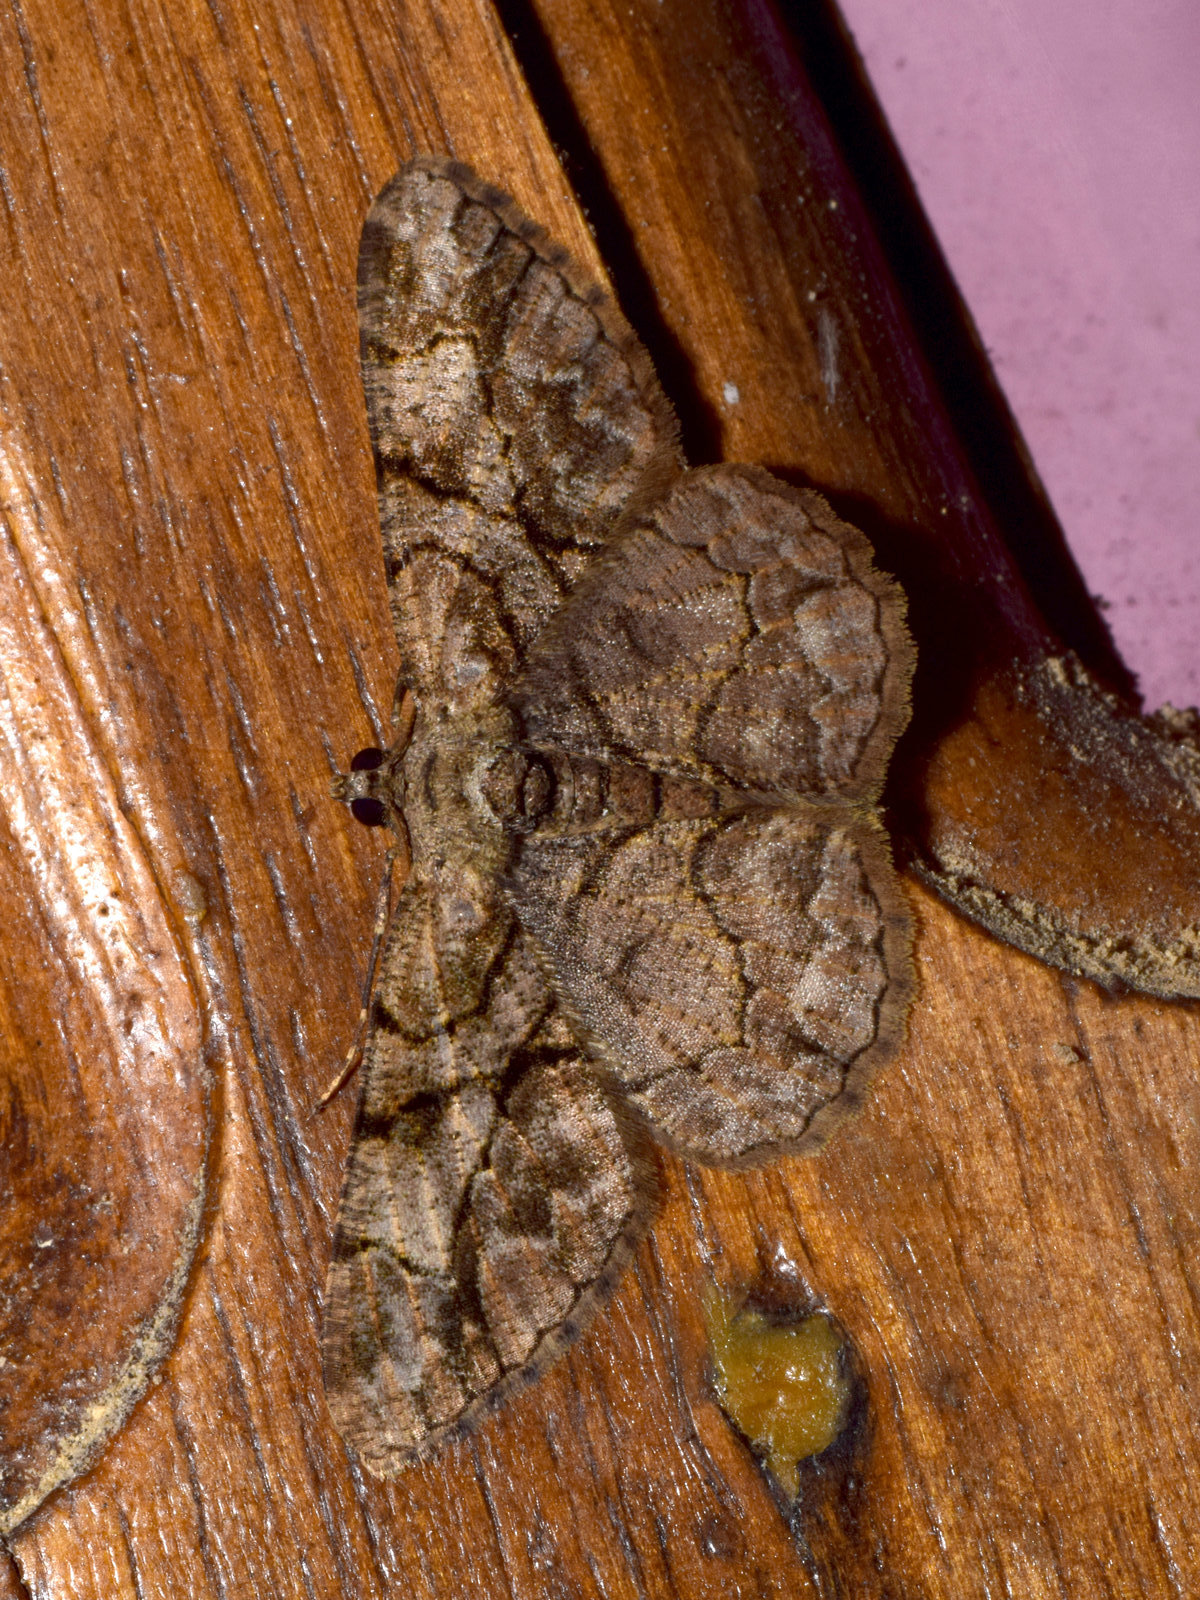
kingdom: Animalia
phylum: Arthropoda
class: Insecta
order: Lepidoptera
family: Geometridae
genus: Psilalcis
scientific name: Psilalcis bisinuata
